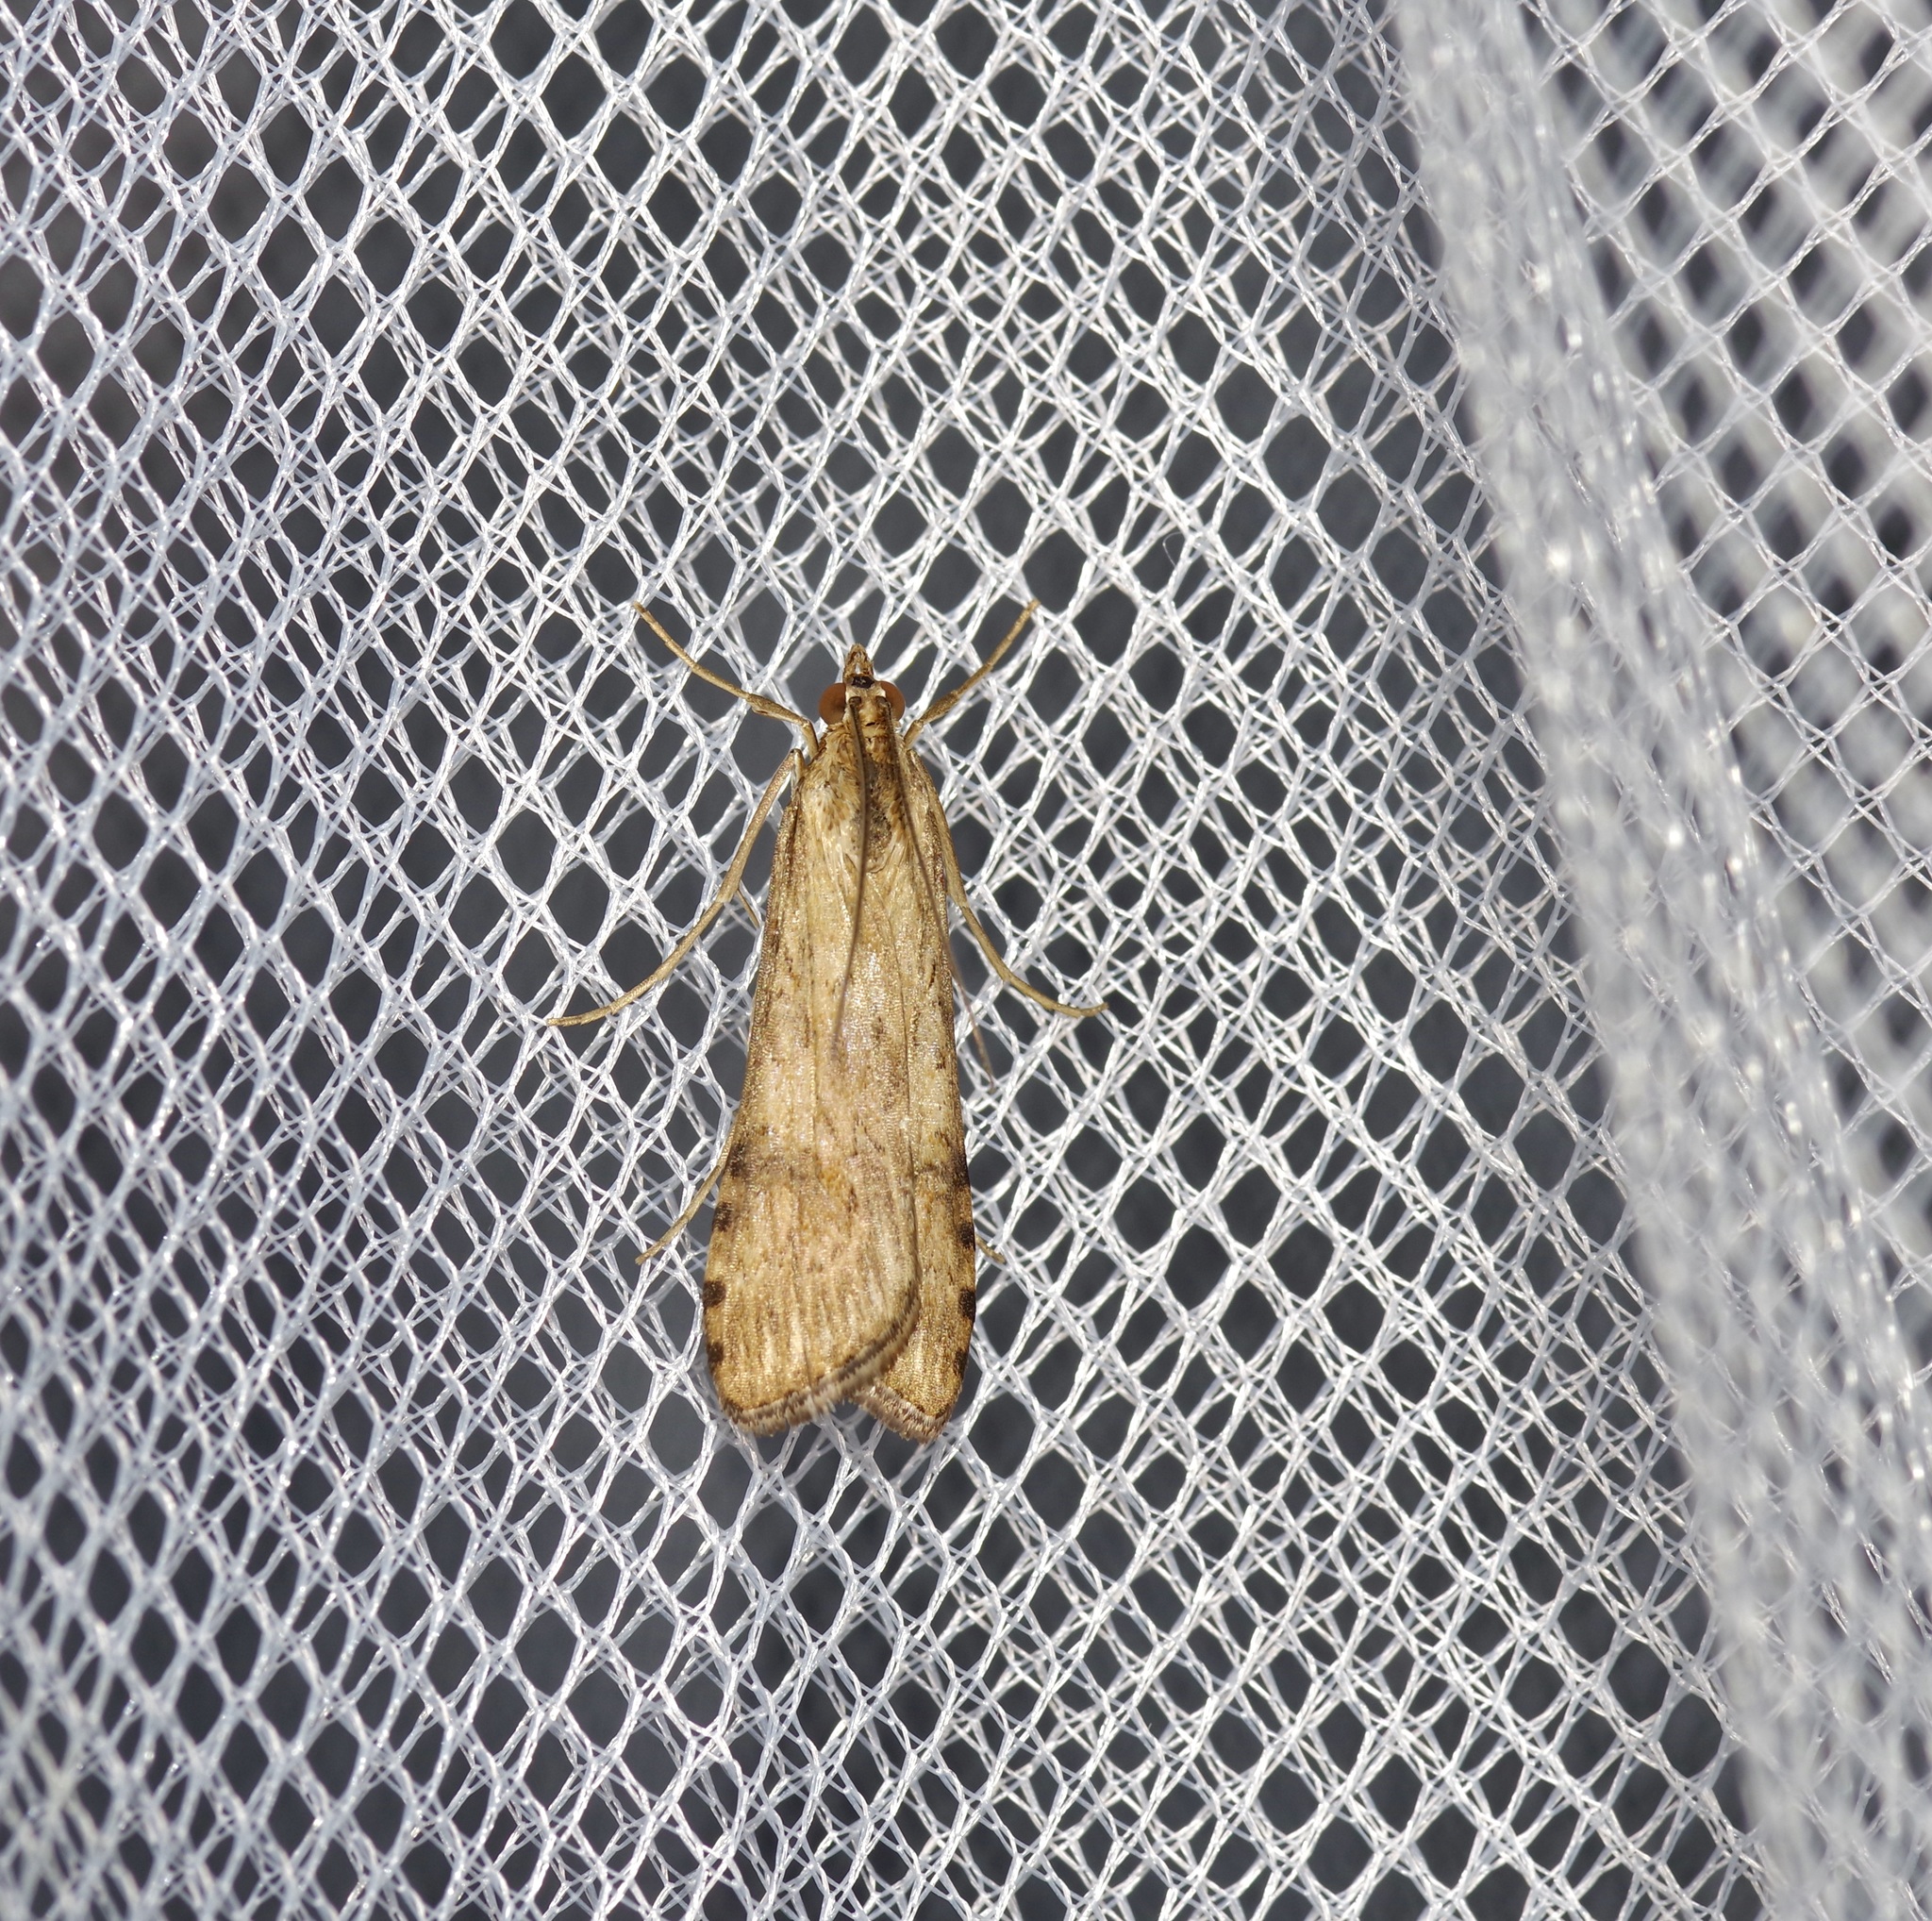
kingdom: Animalia
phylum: Arthropoda
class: Insecta
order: Lepidoptera
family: Crambidae
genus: Nomophila
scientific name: Nomophila nearctica
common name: American rush veneer
